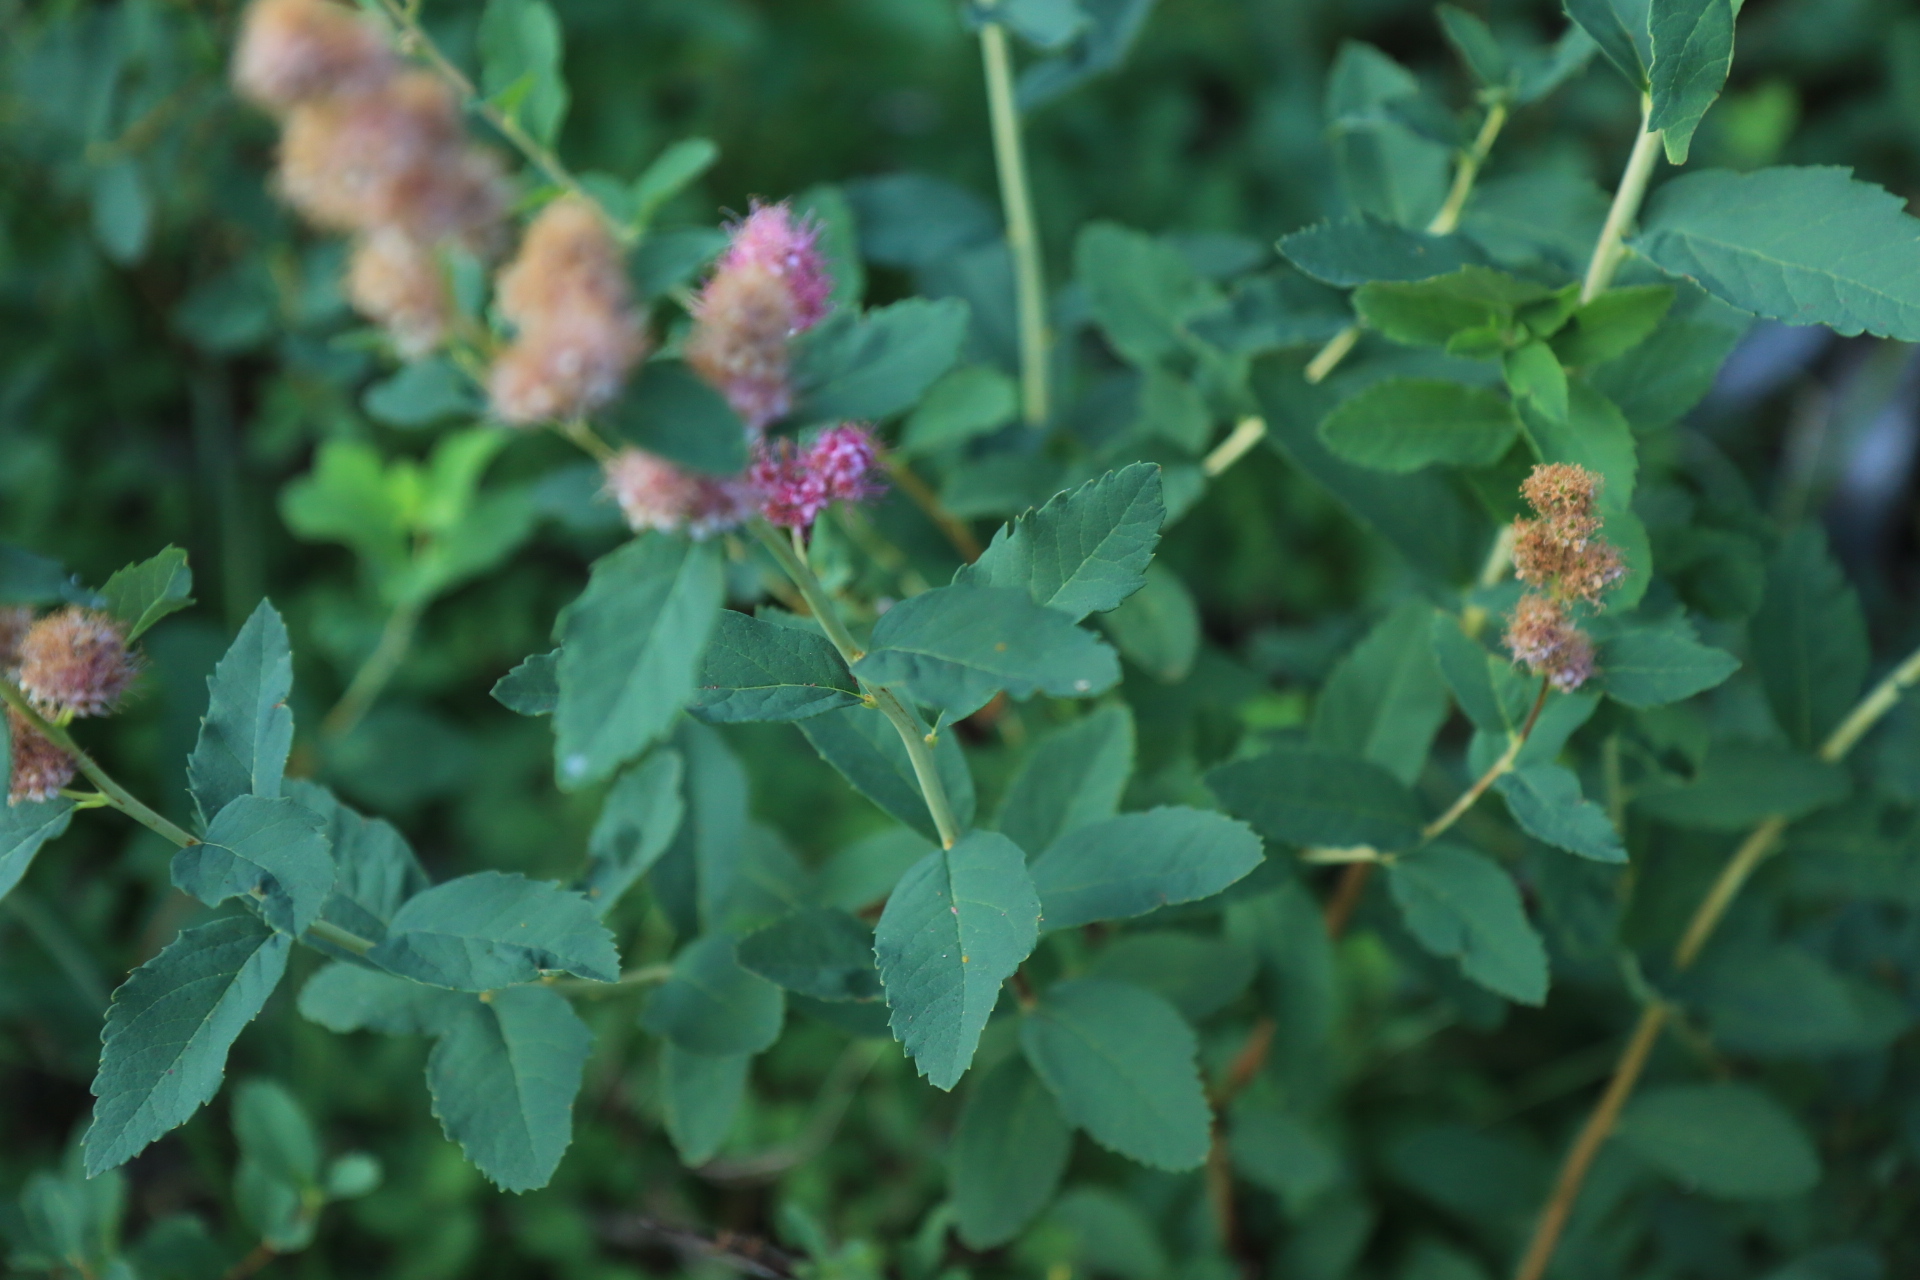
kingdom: Plantae
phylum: Tracheophyta
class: Magnoliopsida
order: Rosales
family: Rosaceae
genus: Spiraea
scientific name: Spiraea douglasii
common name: Steeplebush
